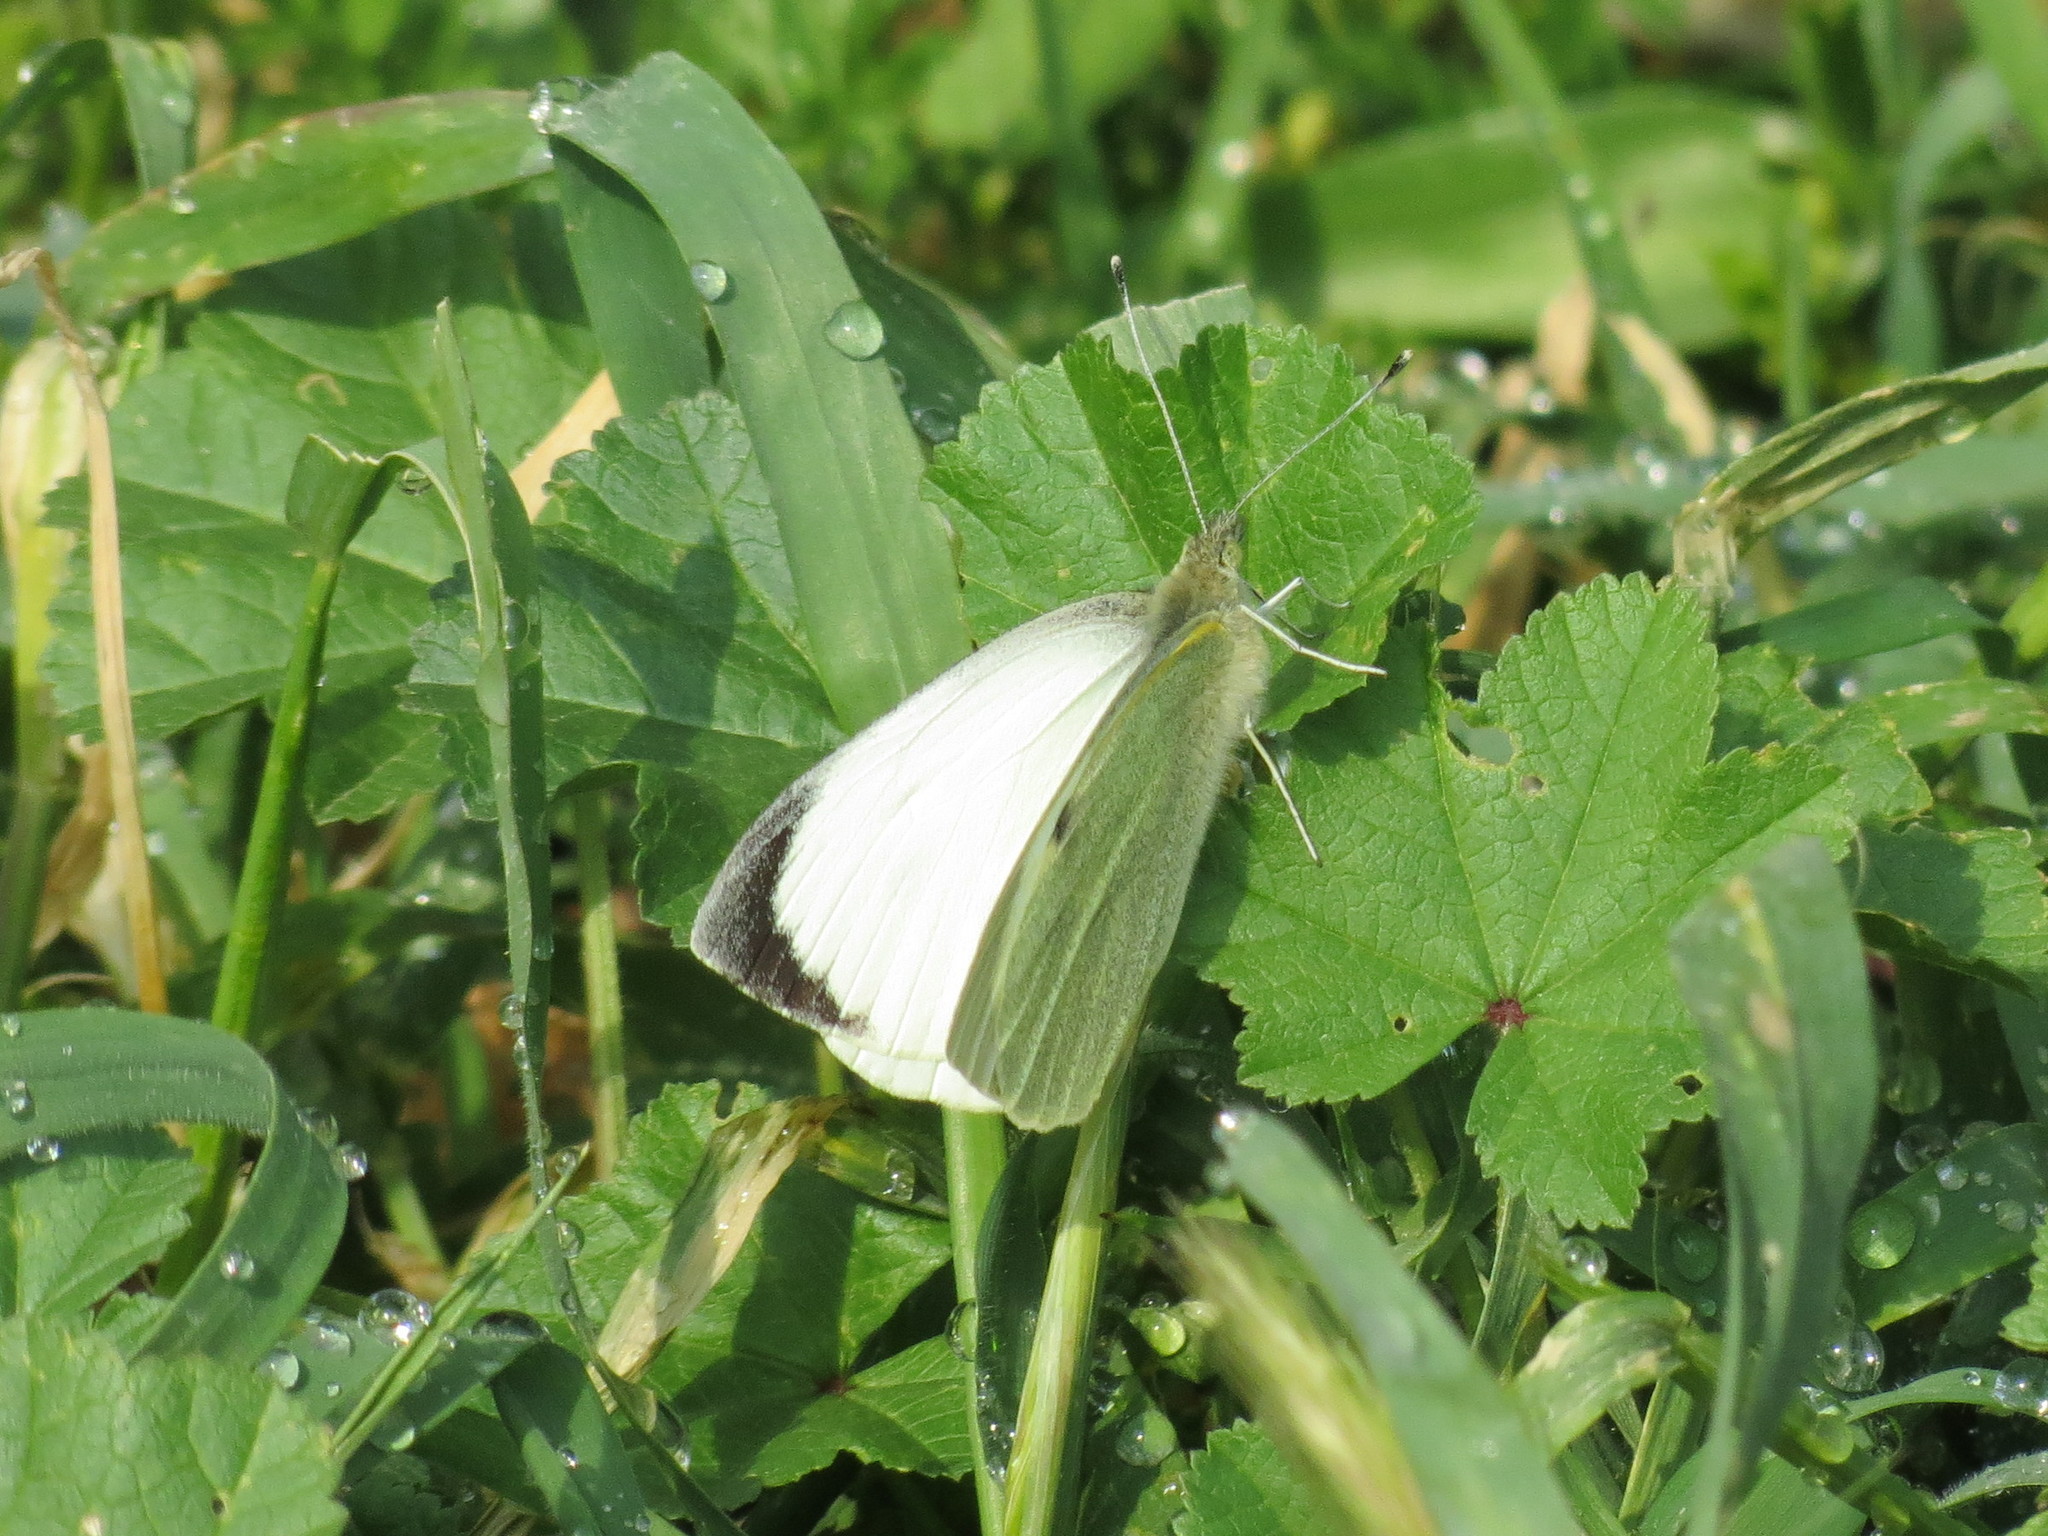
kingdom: Animalia
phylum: Arthropoda
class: Insecta
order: Lepidoptera
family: Pieridae
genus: Pieris
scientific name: Pieris brassicae
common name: Large white
